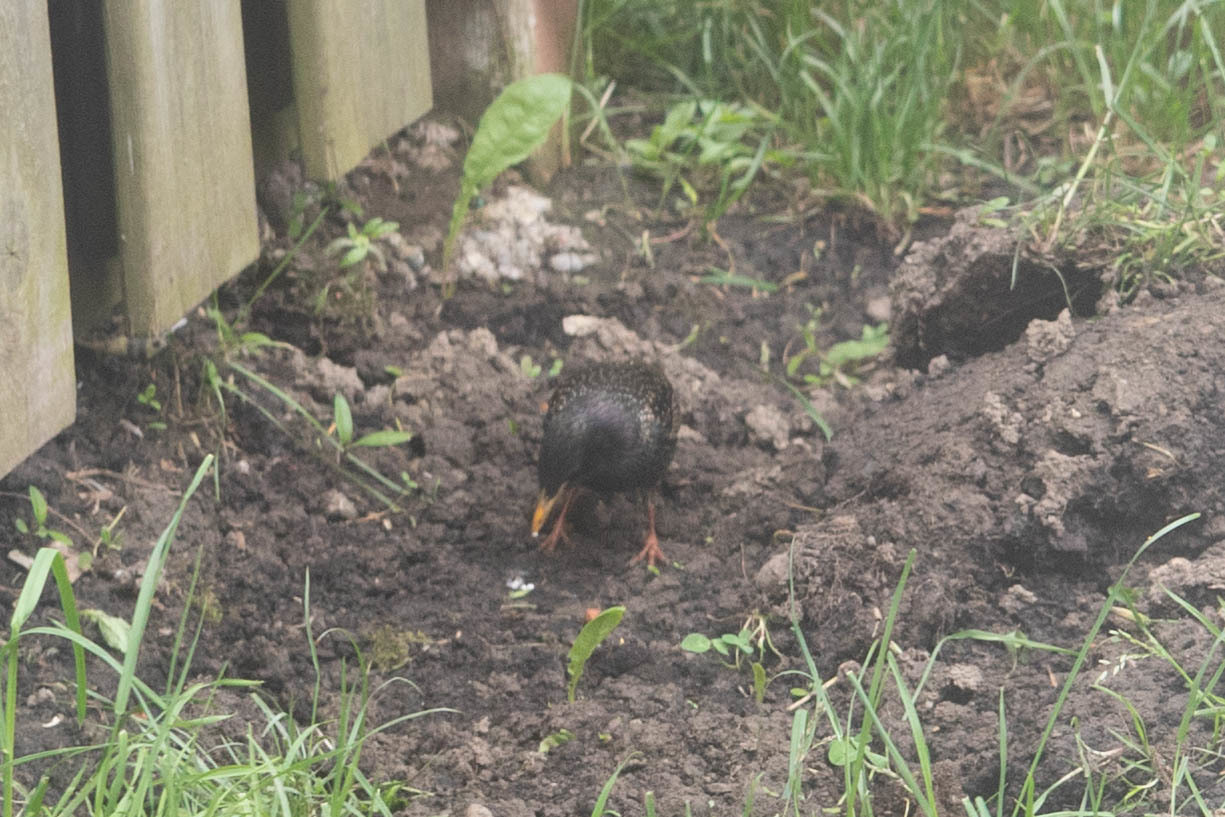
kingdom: Animalia
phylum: Chordata
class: Aves
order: Passeriformes
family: Sturnidae
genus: Sturnus
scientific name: Sturnus vulgaris
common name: Common starling
